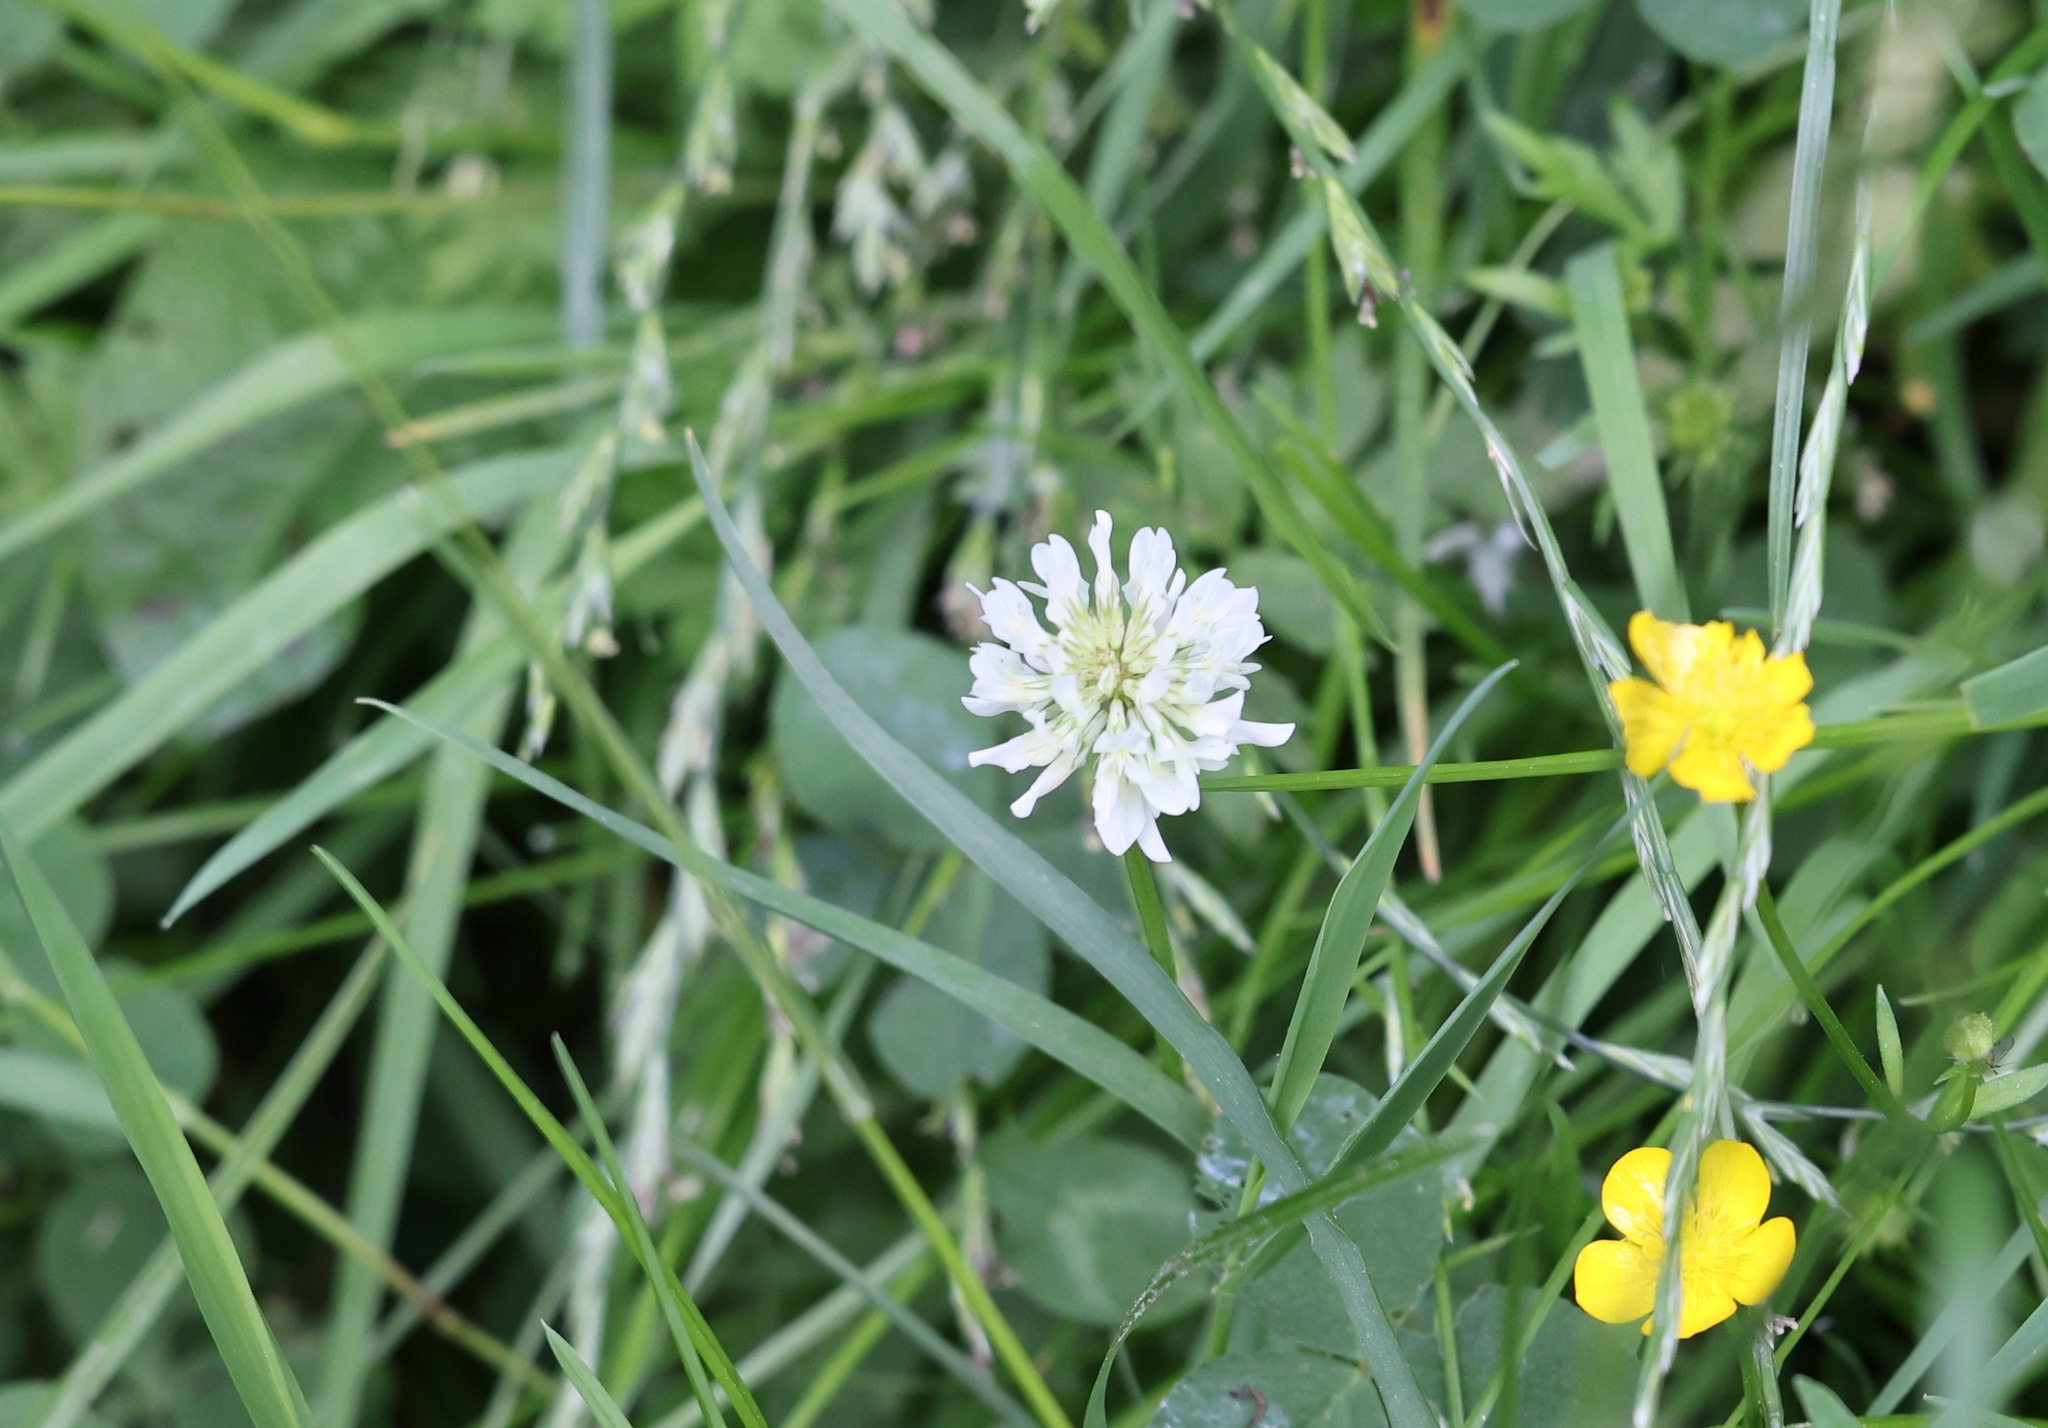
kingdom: Plantae
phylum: Tracheophyta
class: Magnoliopsida
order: Fabales
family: Fabaceae
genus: Trifolium
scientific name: Trifolium repens
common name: White clover
